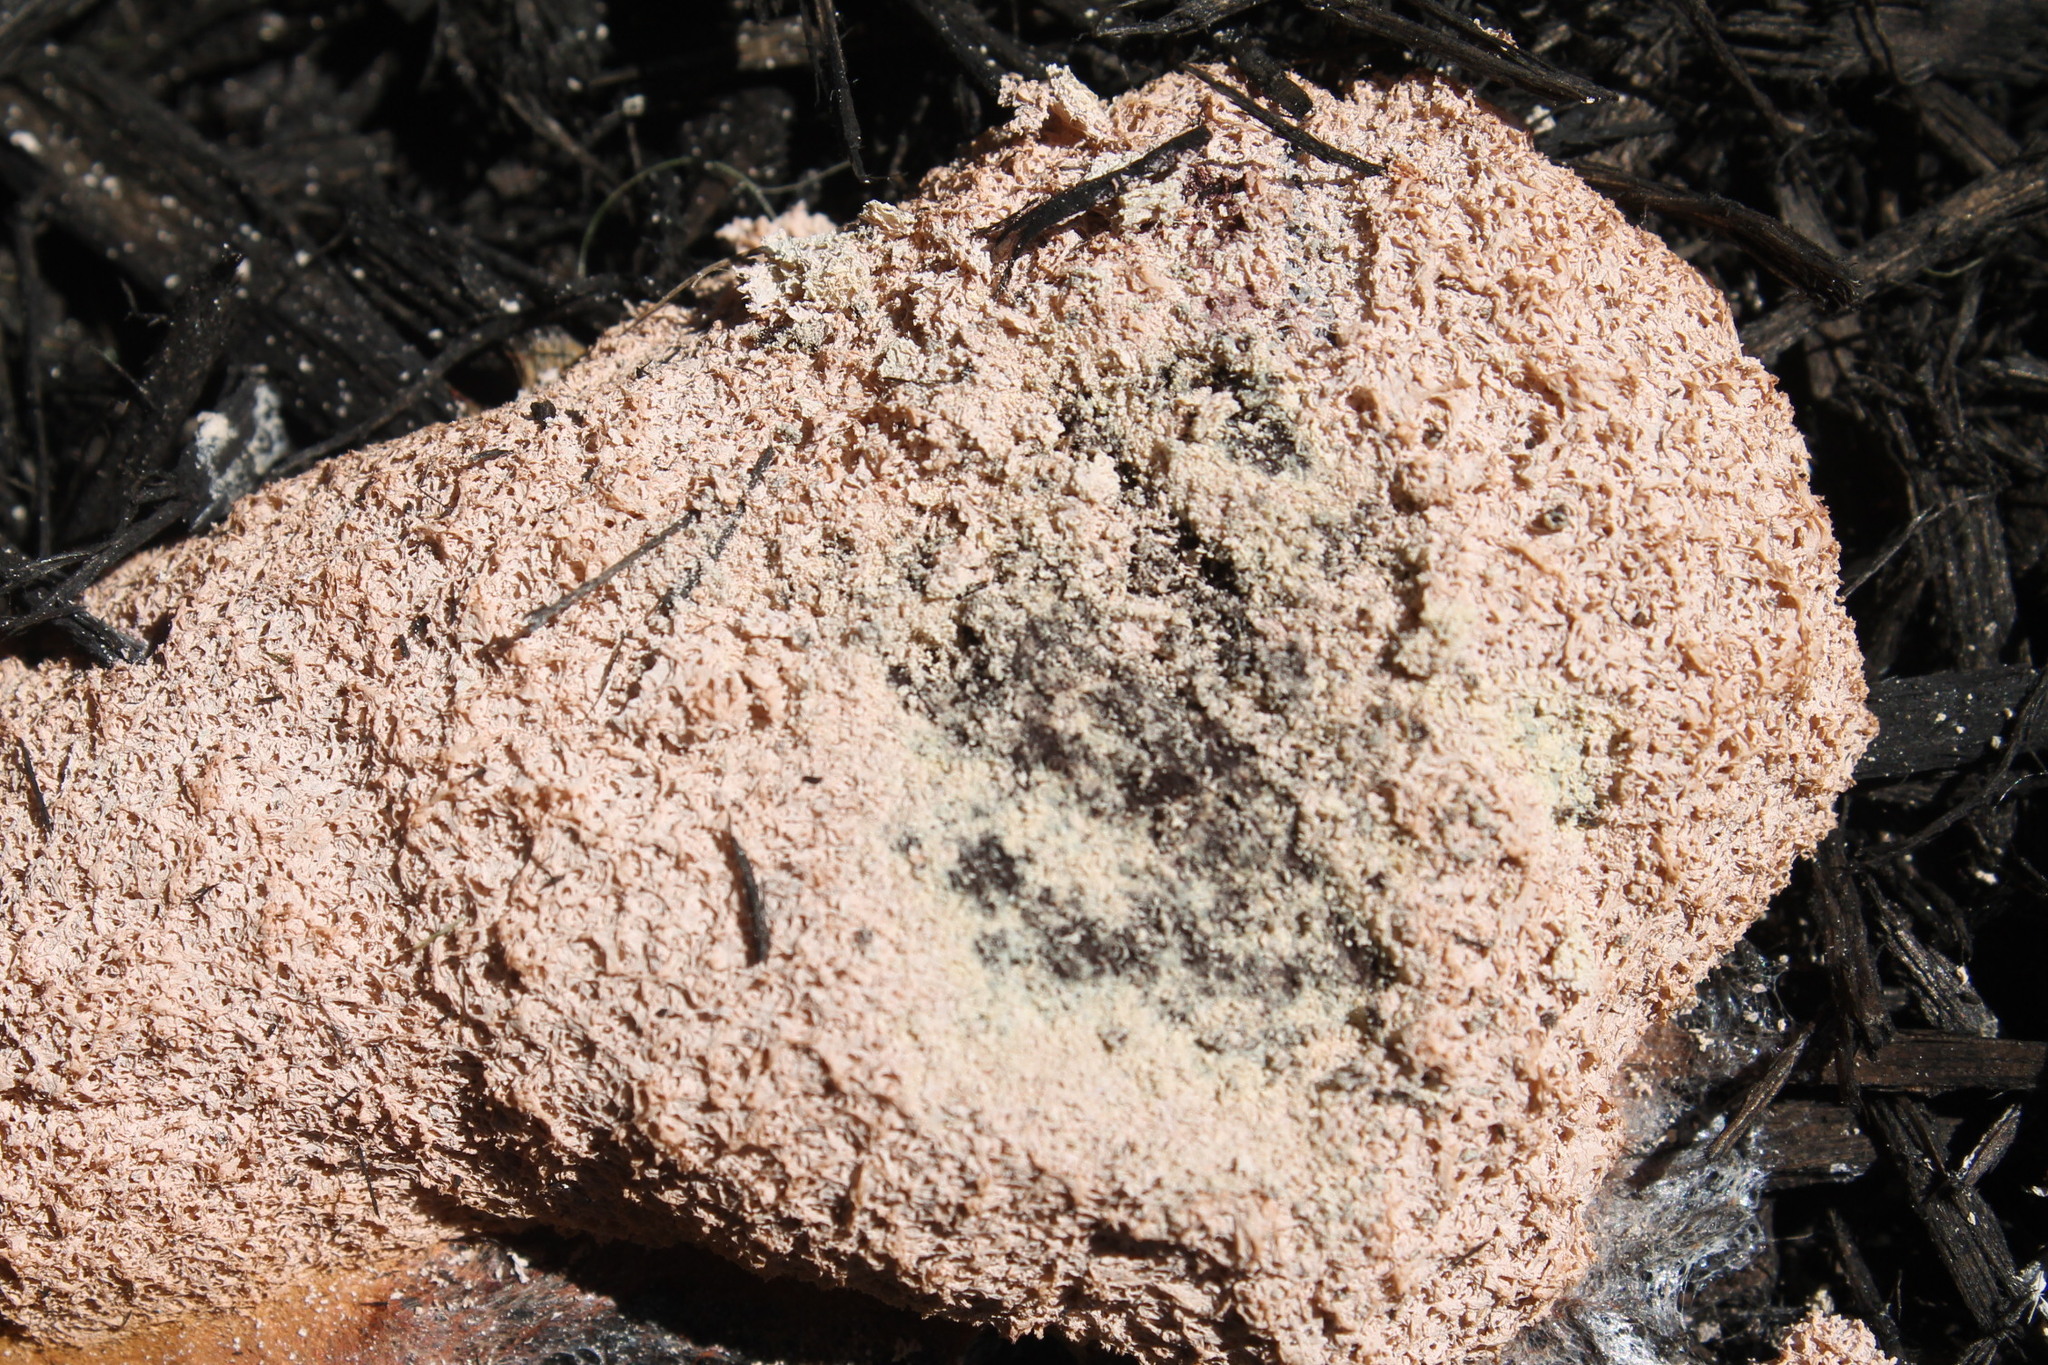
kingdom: Protozoa
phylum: Mycetozoa
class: Myxomycetes
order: Physarales
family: Physaraceae
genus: Fuligo
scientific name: Fuligo septica
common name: Dog vomit slime mold
